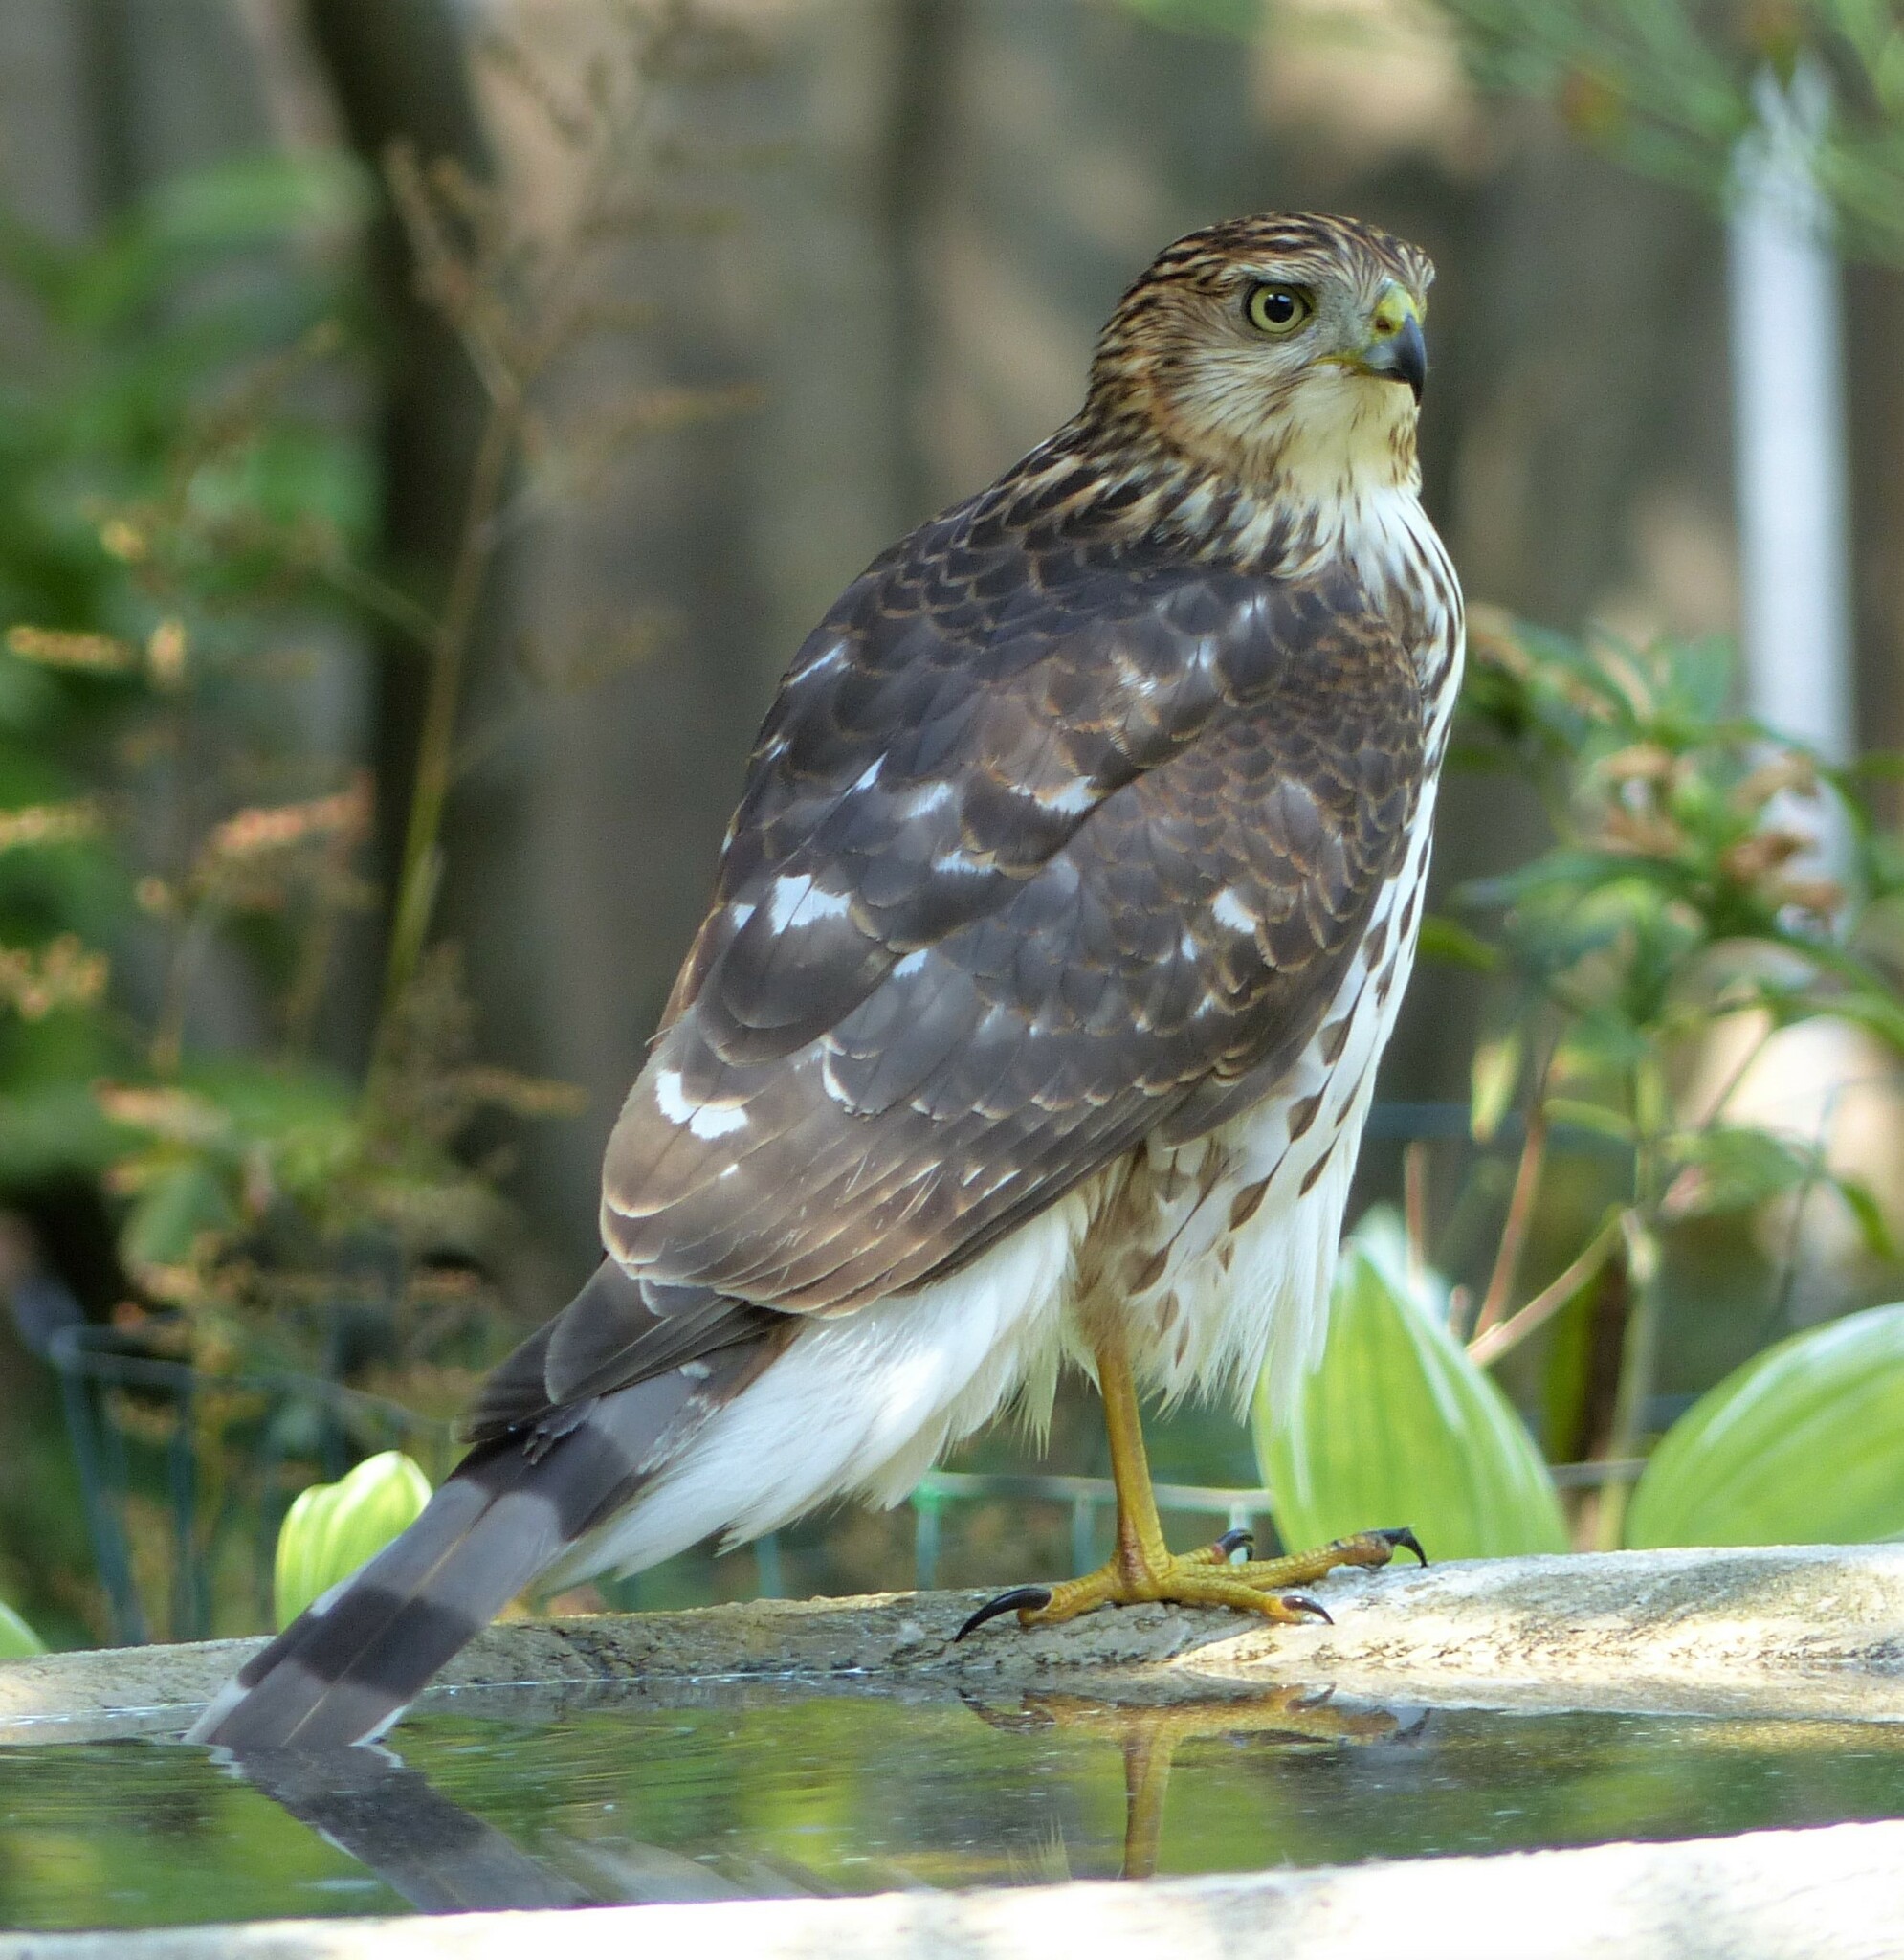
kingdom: Animalia
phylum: Chordata
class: Aves
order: Accipitriformes
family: Accipitridae
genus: Accipiter
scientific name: Accipiter cooperii
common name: Cooper's hawk
